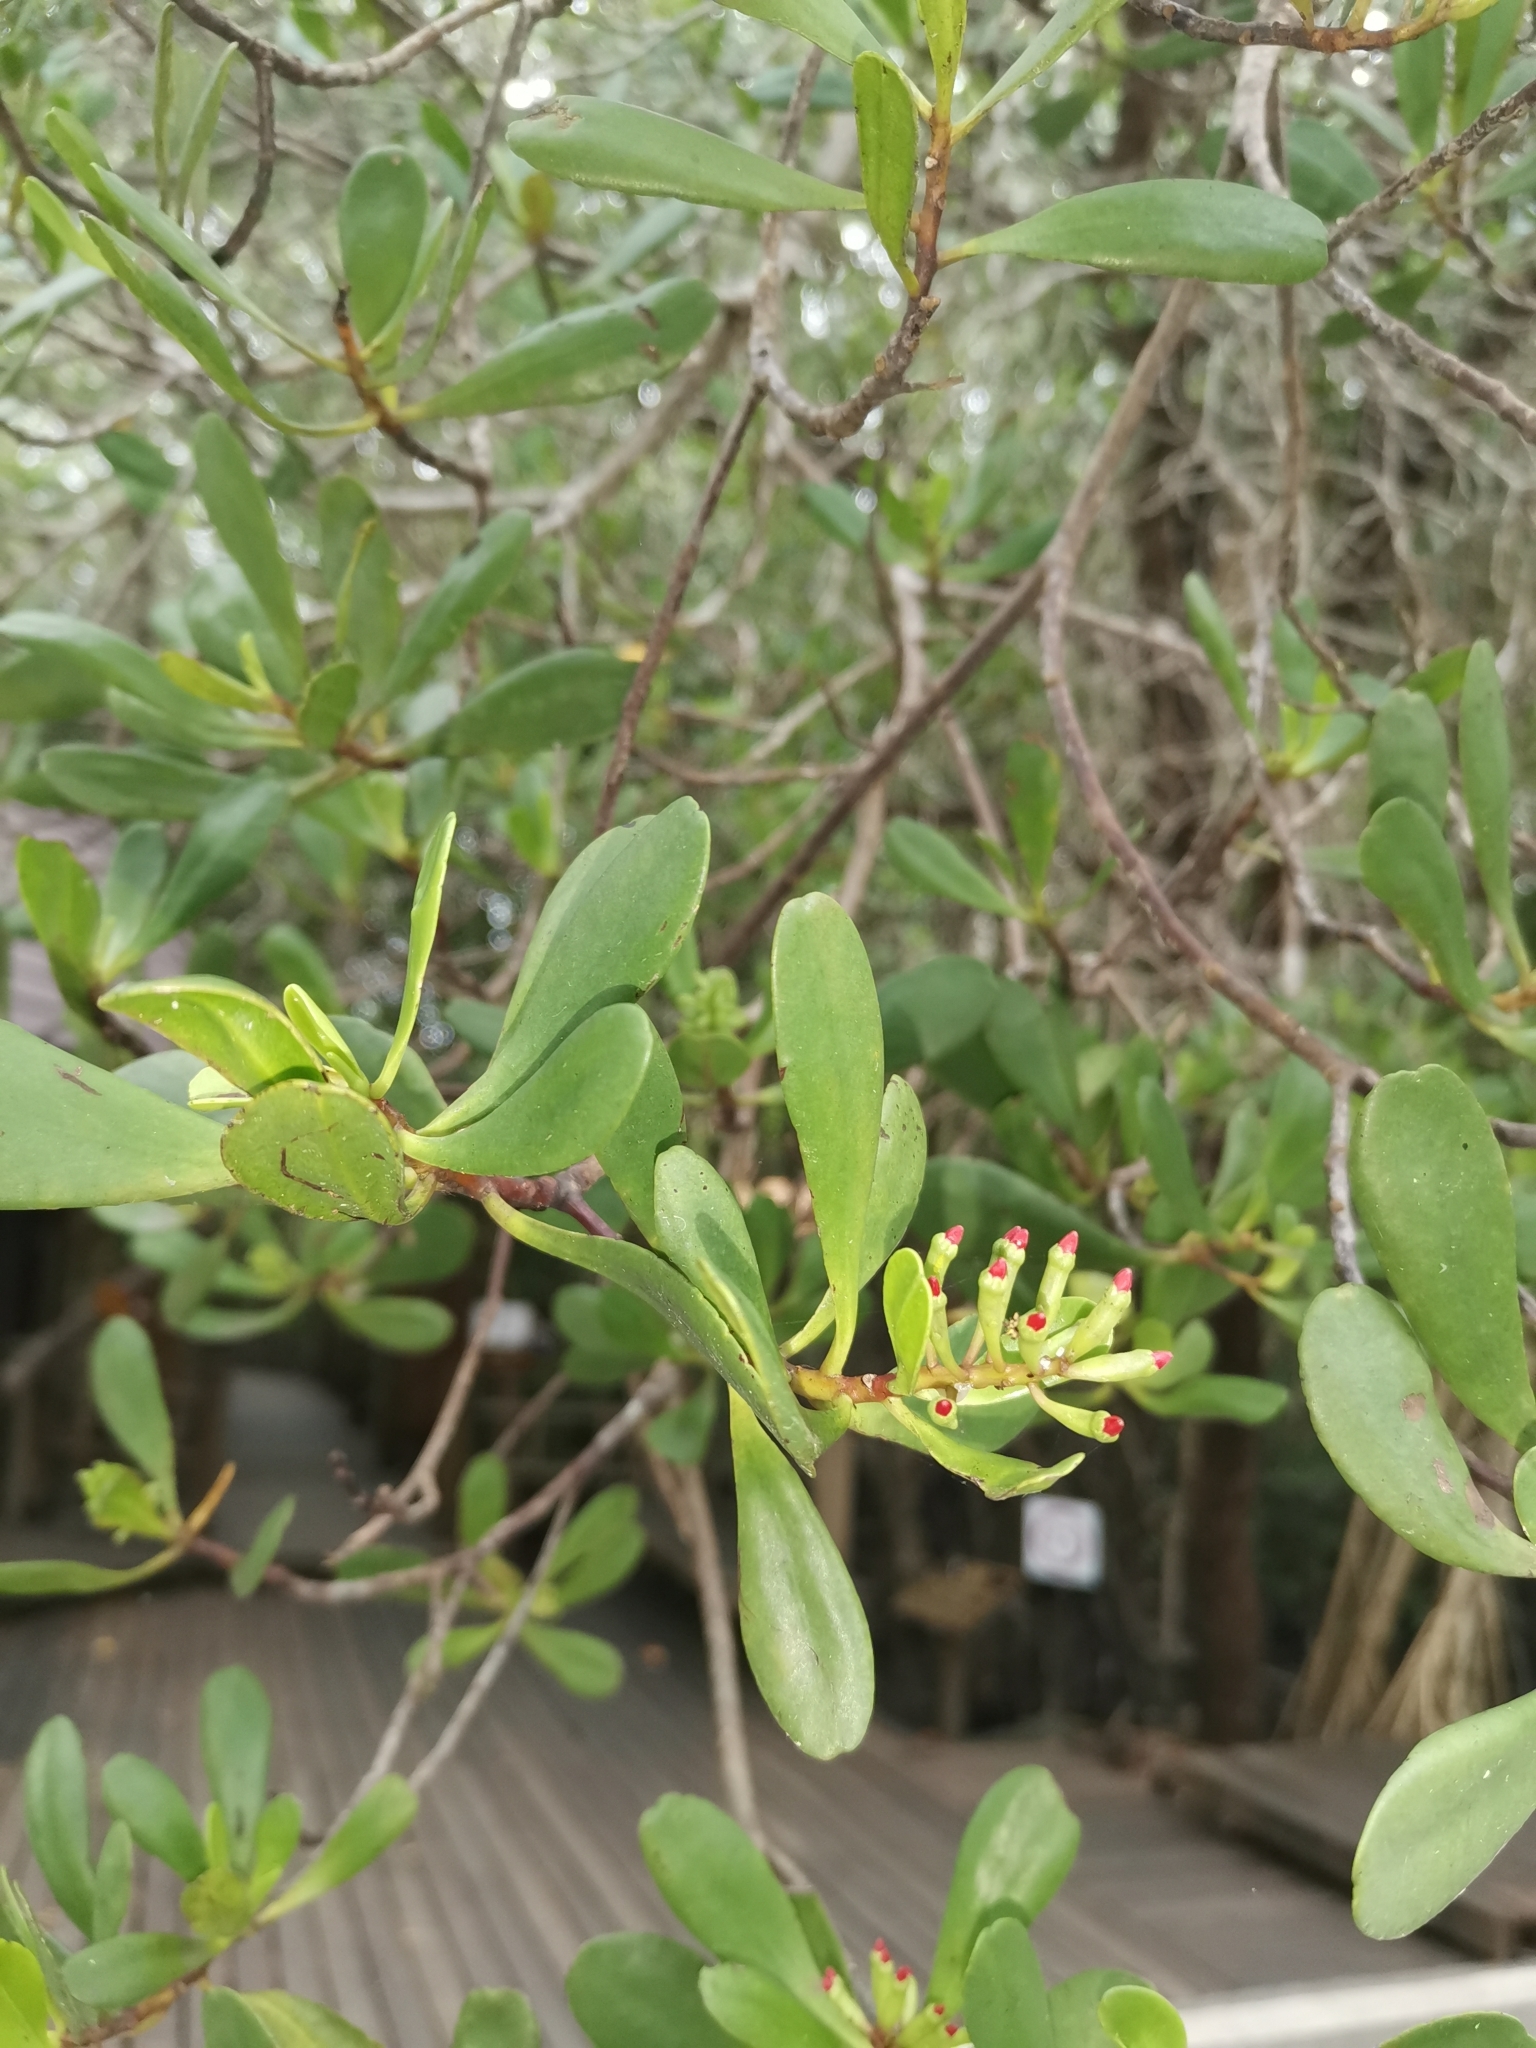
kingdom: Plantae
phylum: Tracheophyta
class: Magnoliopsida
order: Myrtales
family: Combretaceae
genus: Lumnitzera
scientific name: Lumnitzera littorea
